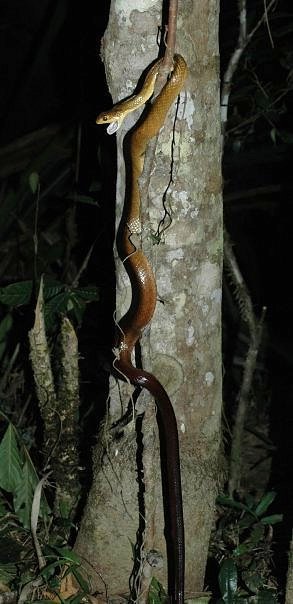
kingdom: Animalia
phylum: Chordata
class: Squamata
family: Pseudoxyrhophiidae
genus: Ithycyphus
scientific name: Ithycyphus perineti
